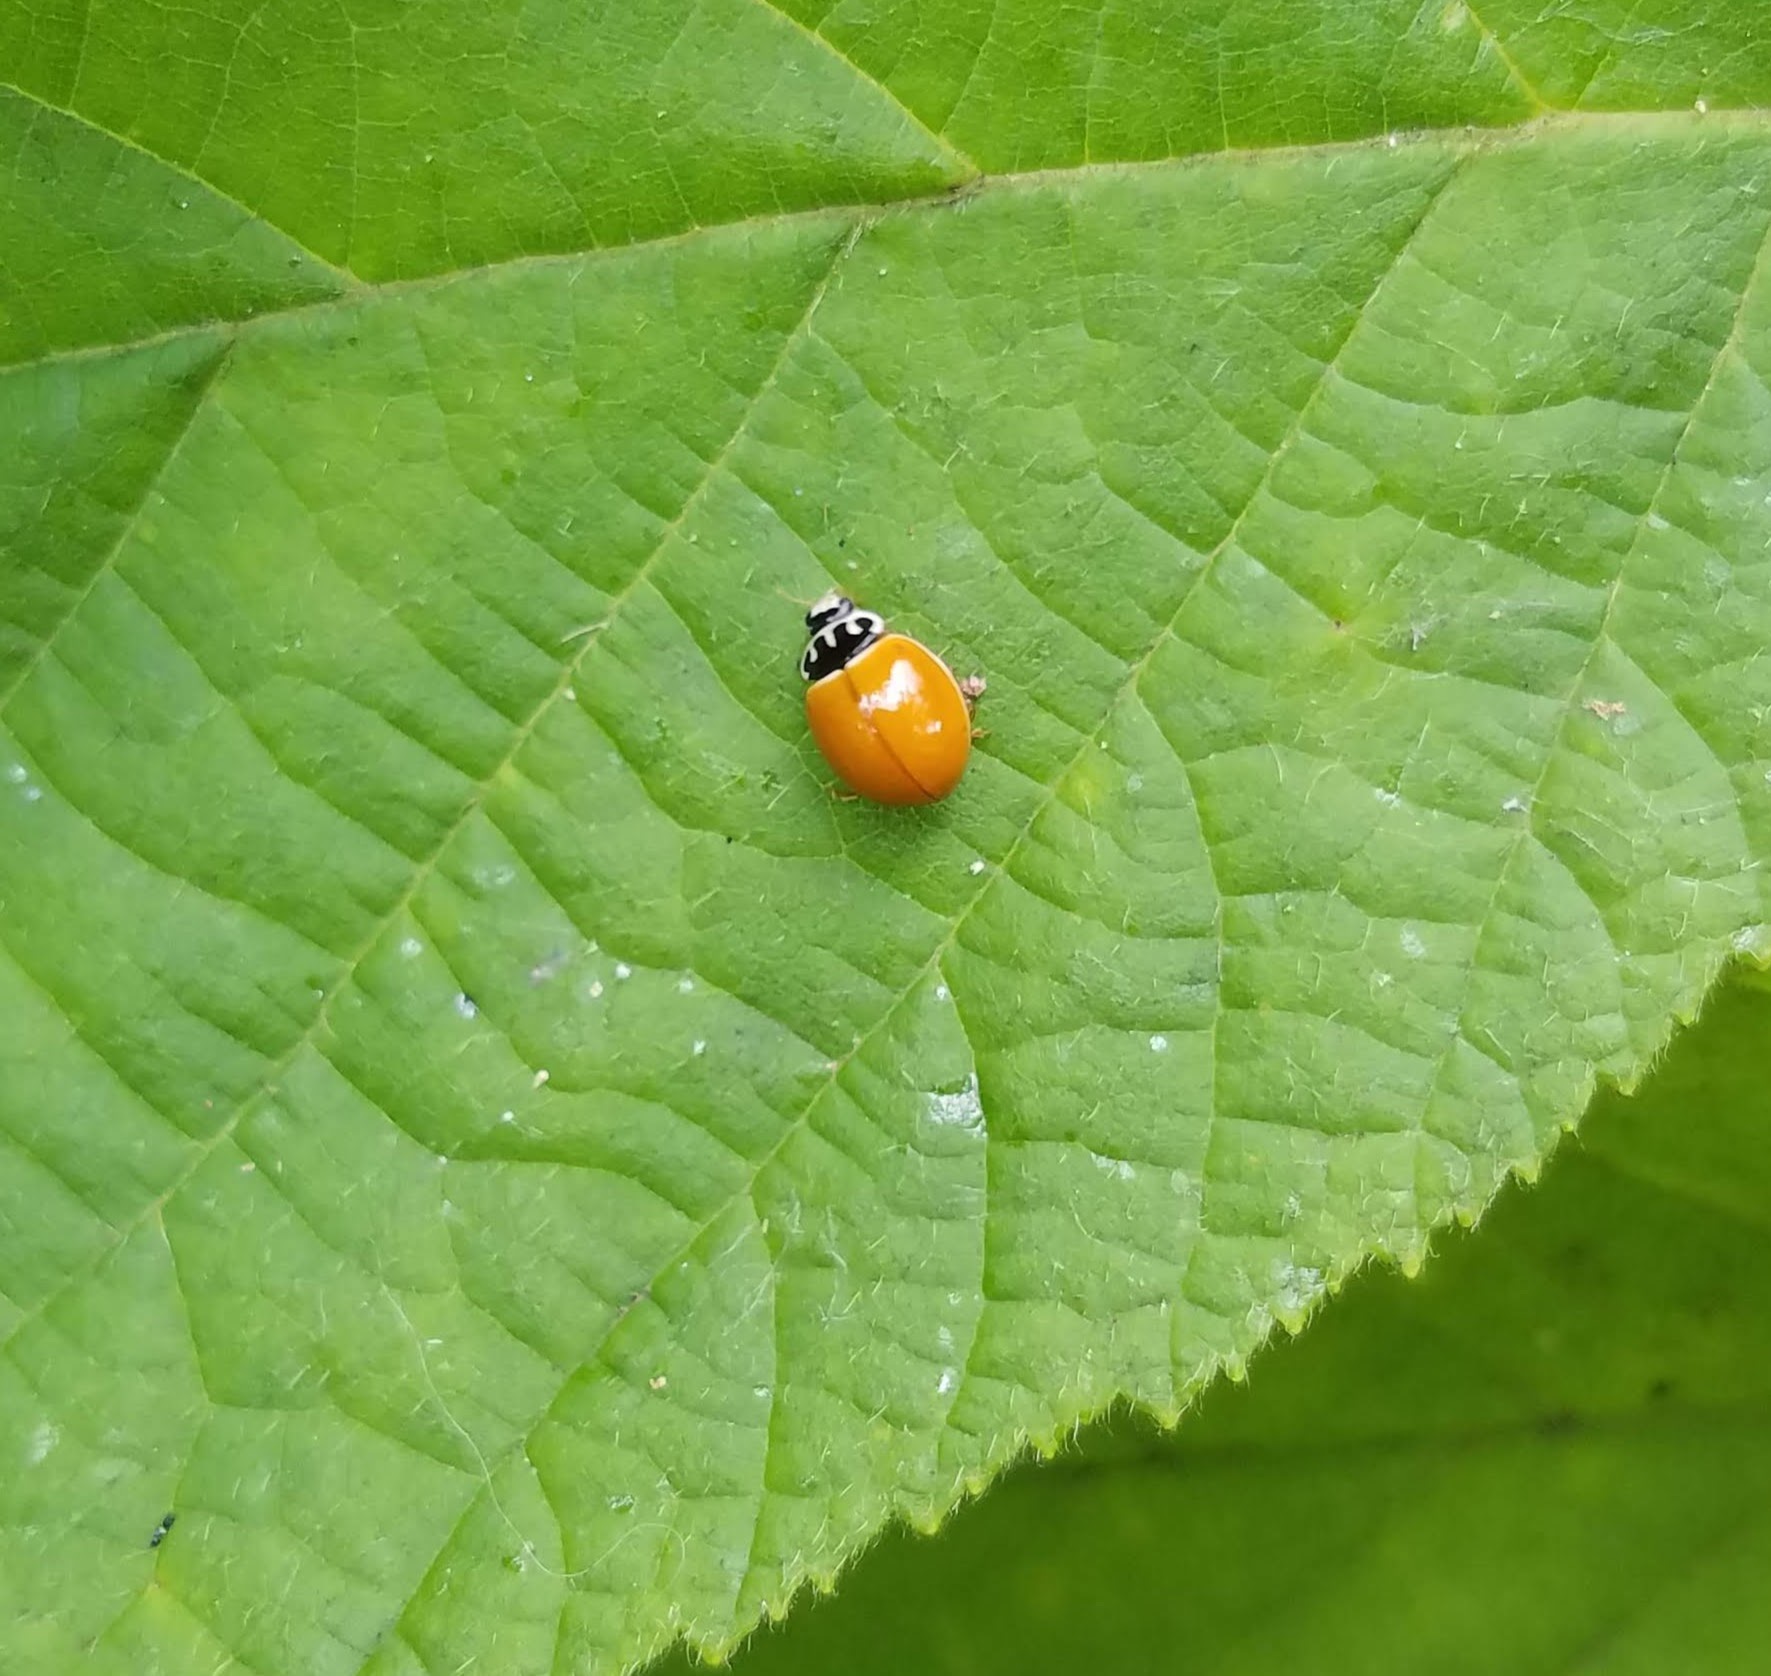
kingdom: Animalia
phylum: Arthropoda
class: Insecta
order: Coleoptera
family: Coccinellidae
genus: Cycloneda
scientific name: Cycloneda munda
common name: Polished lady beetle
